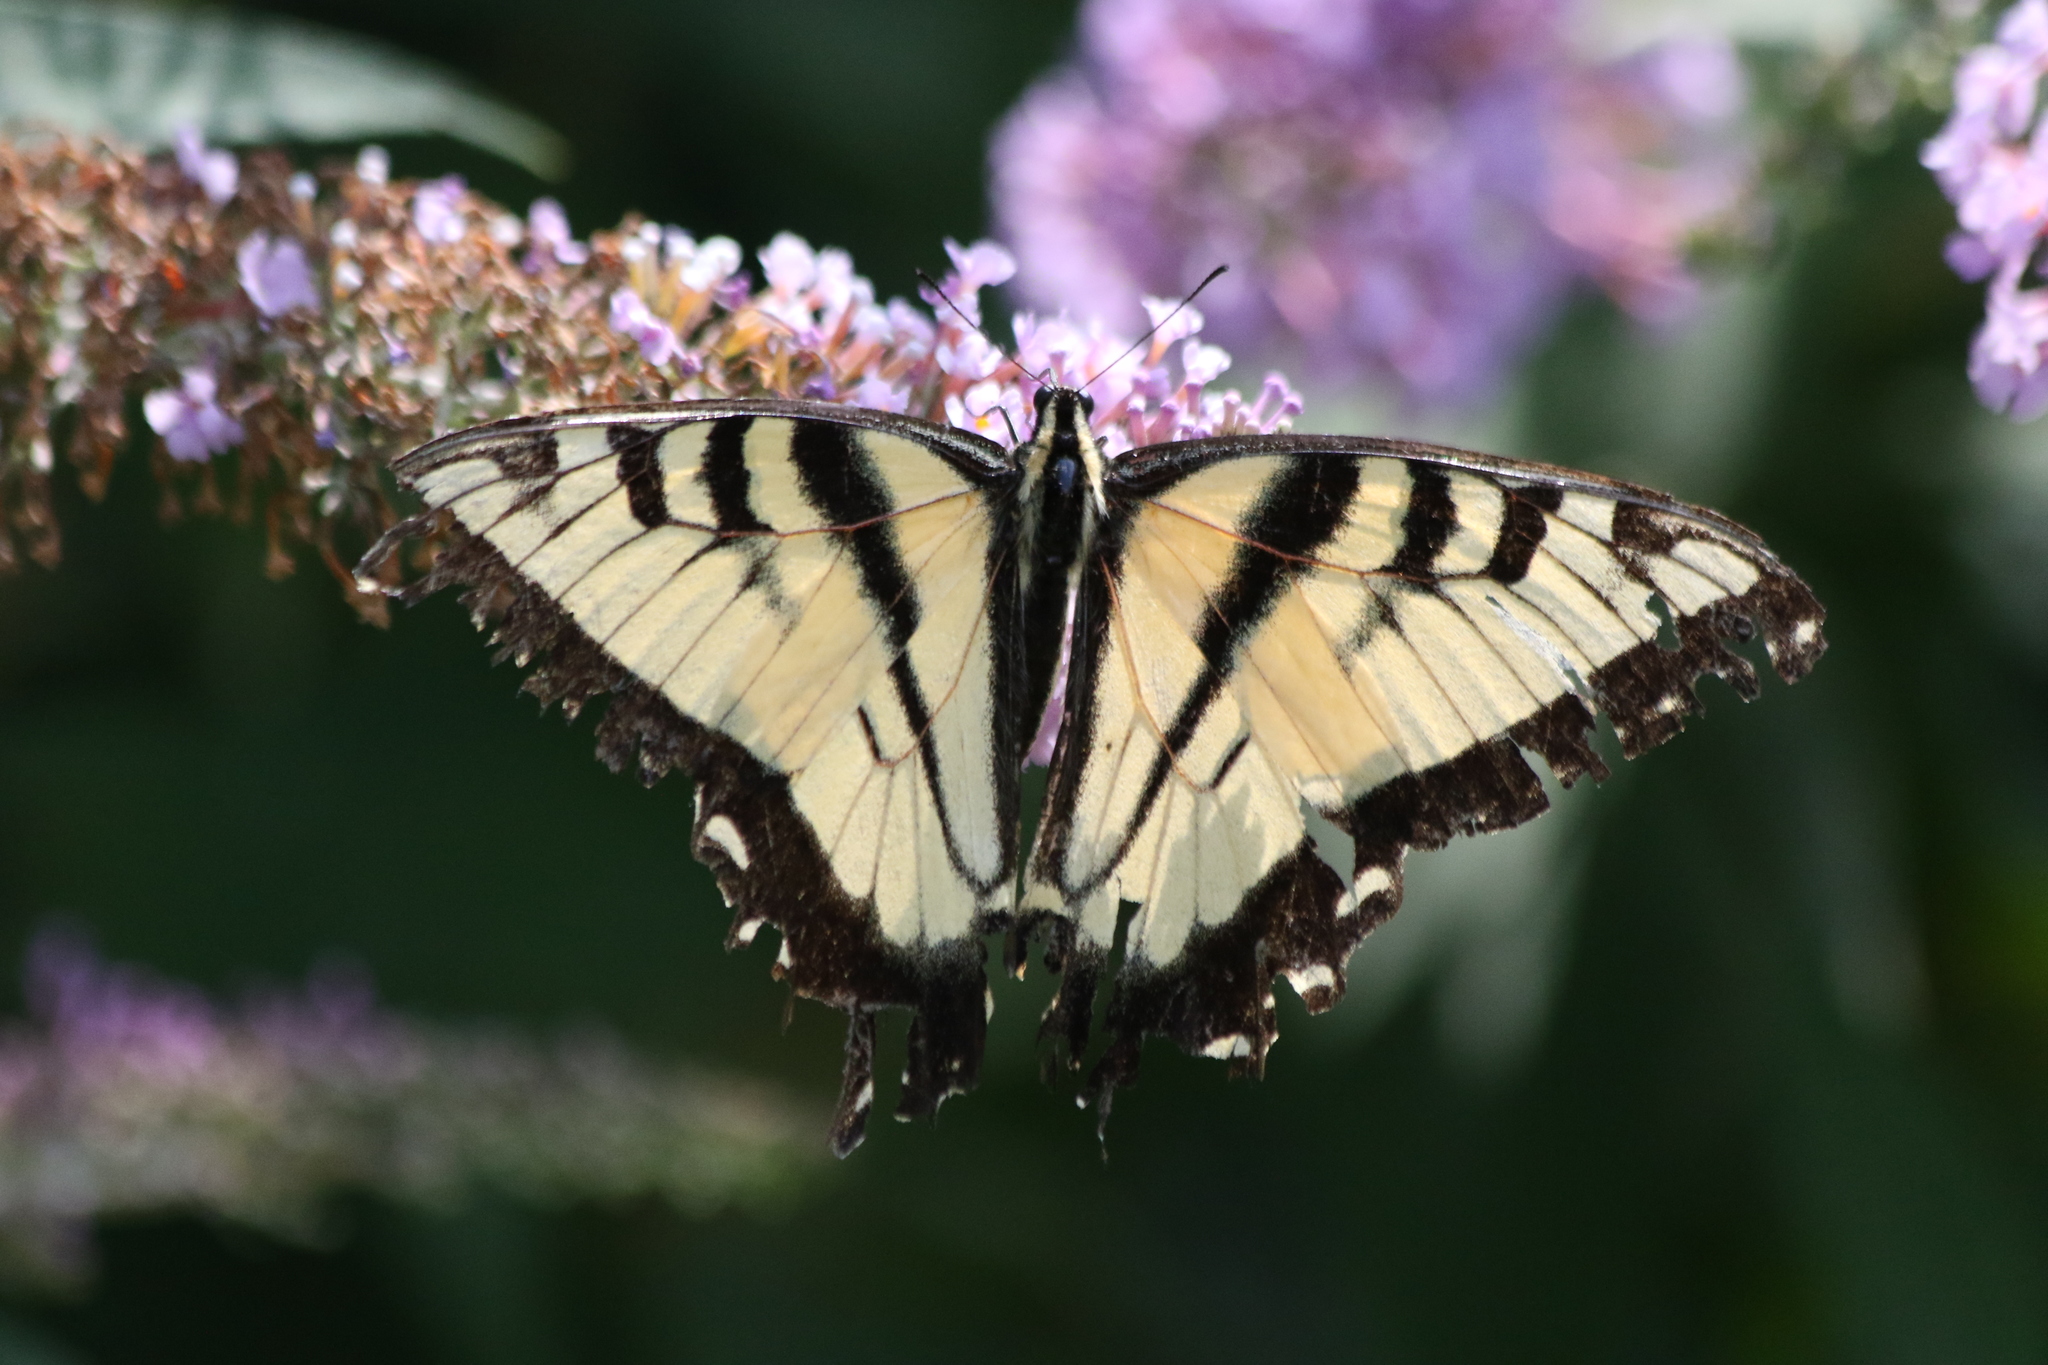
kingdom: Animalia
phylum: Arthropoda
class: Insecta
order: Lepidoptera
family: Papilionidae
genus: Papilio
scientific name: Papilio glaucus
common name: Tiger swallowtail
